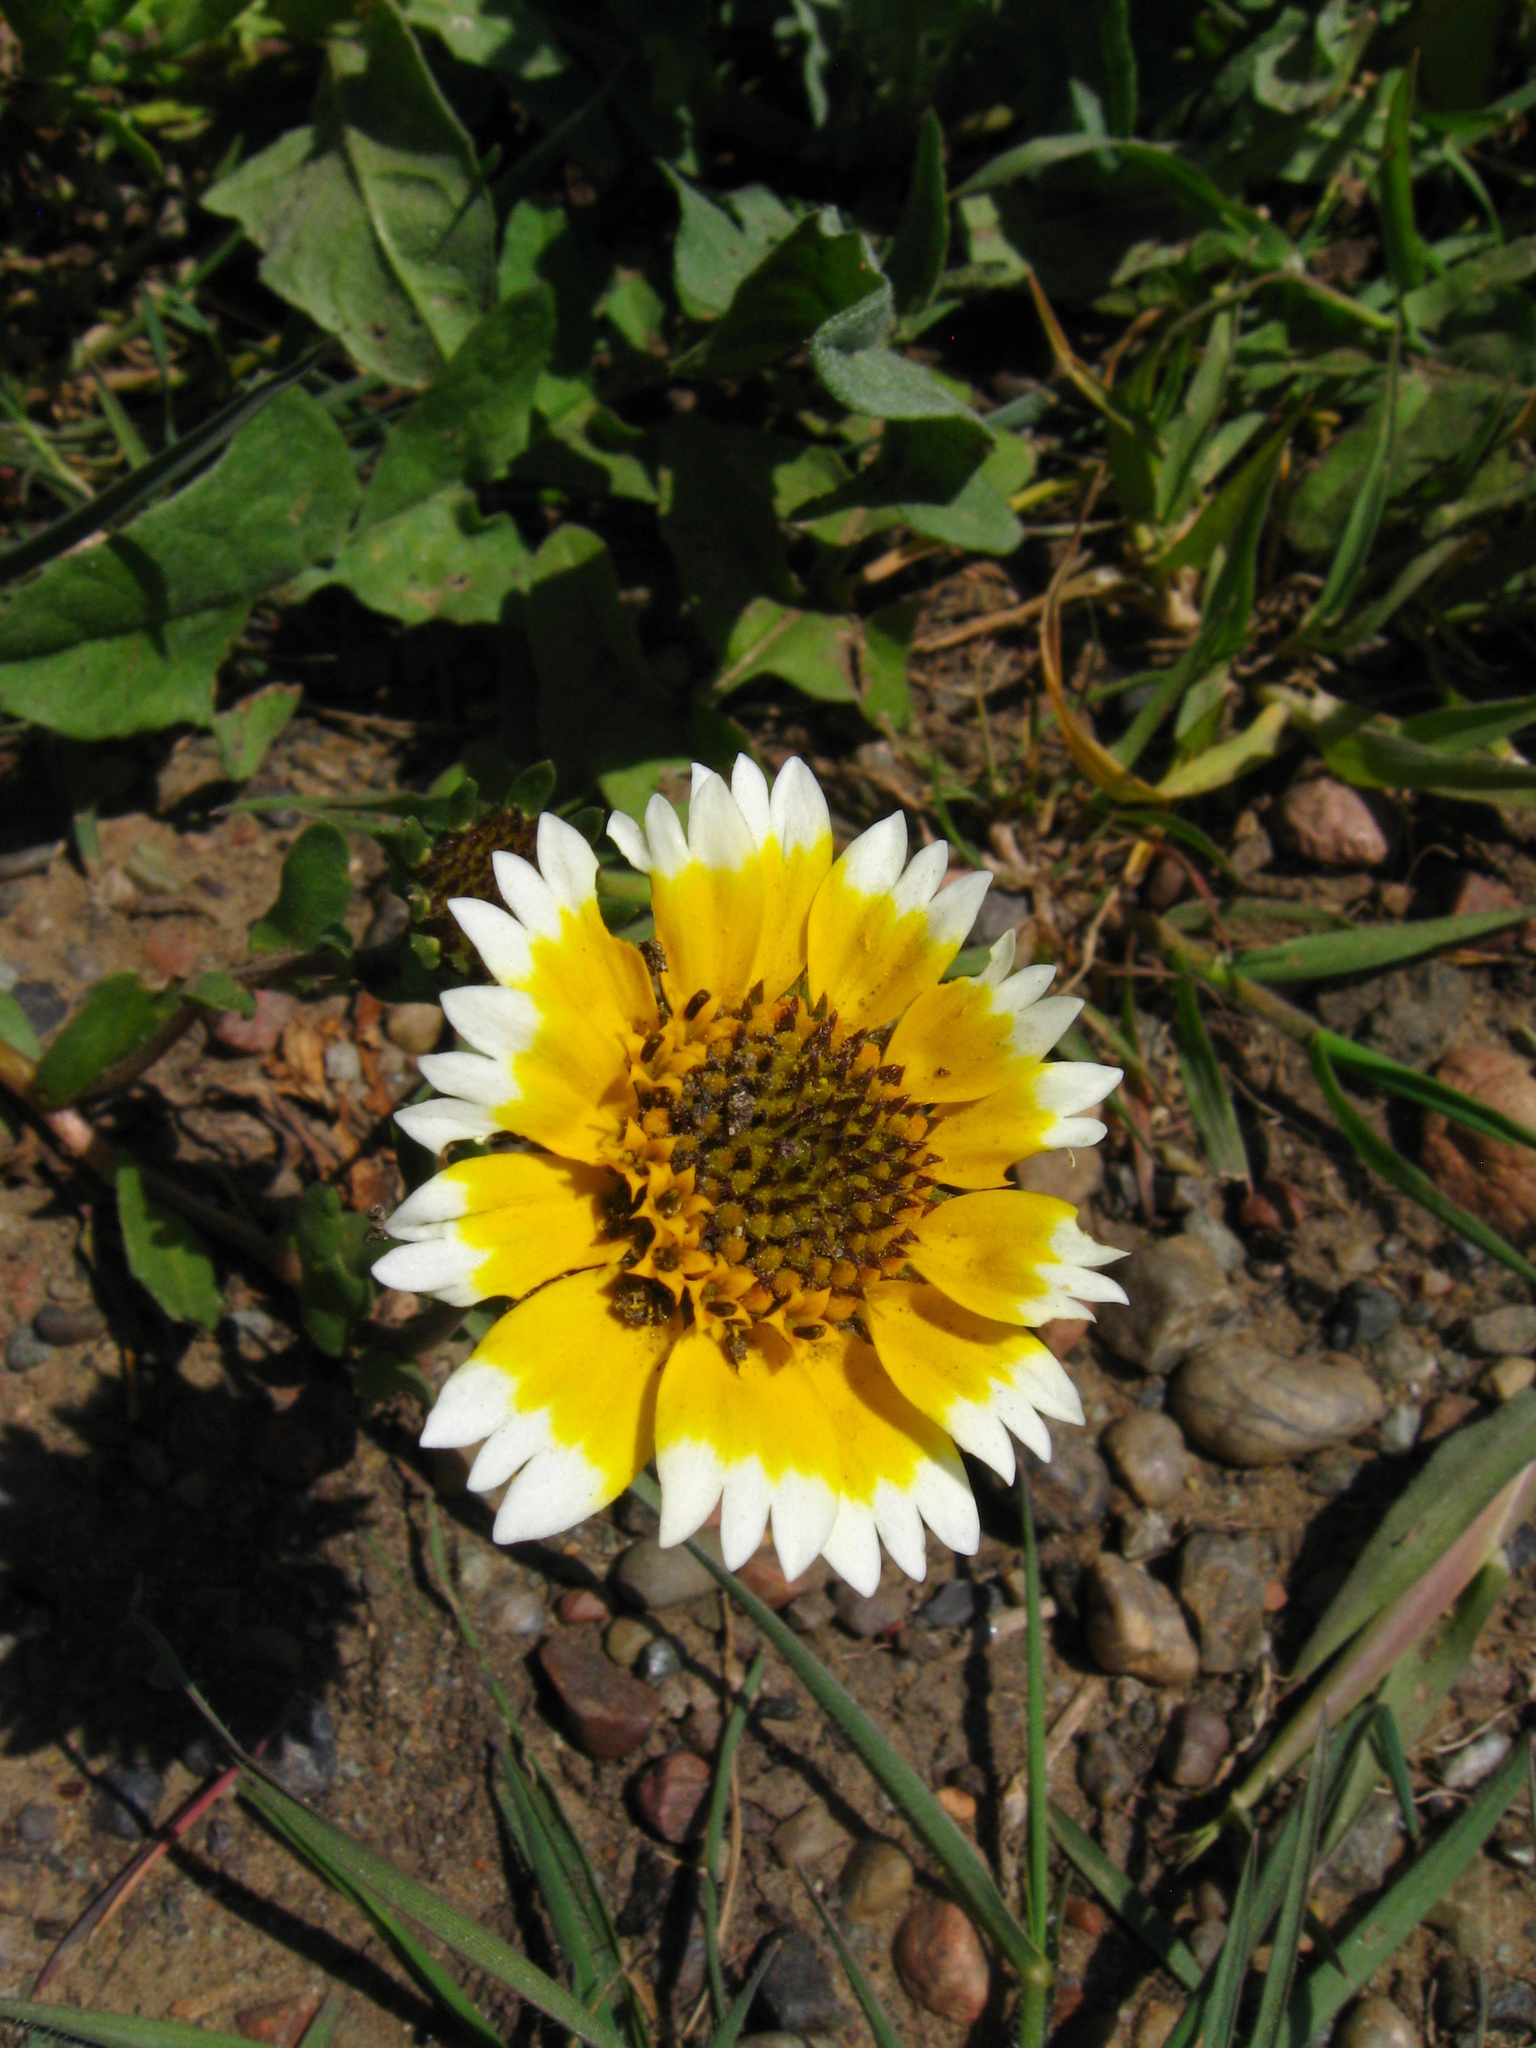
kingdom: Plantae
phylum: Tracheophyta
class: Magnoliopsida
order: Asterales
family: Asteraceae
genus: Layia
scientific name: Layia chrysanthemoides
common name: Smooth layia
